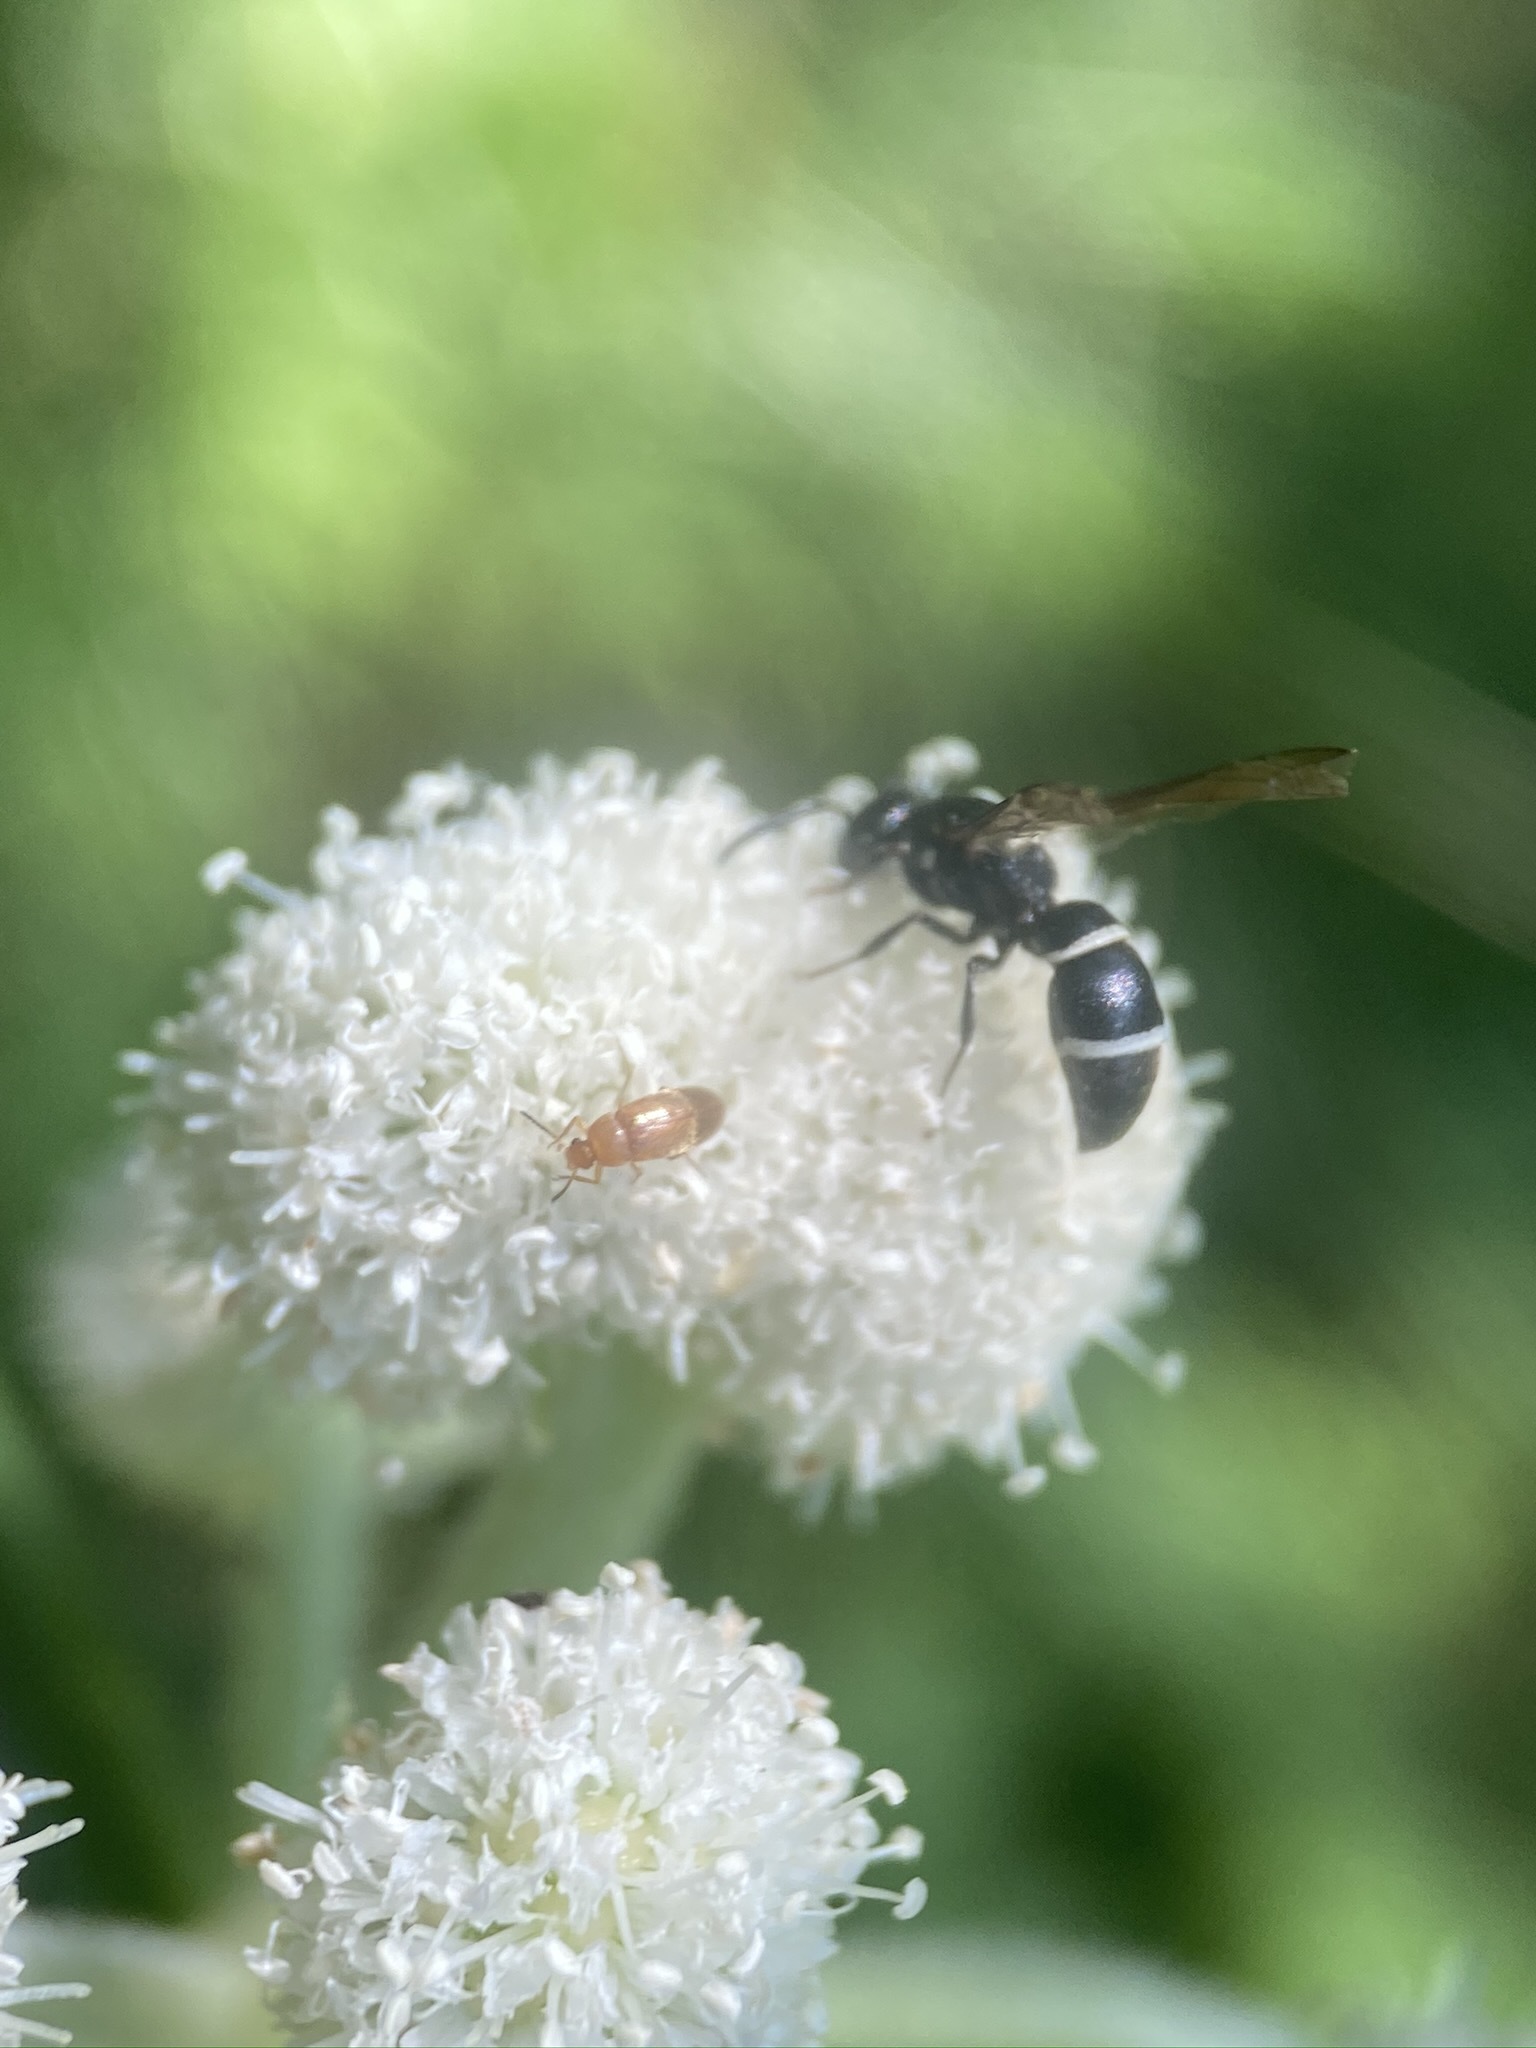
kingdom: Animalia
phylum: Arthropoda
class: Insecta
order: Hymenoptera
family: Eumenidae
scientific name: Eumenidae
